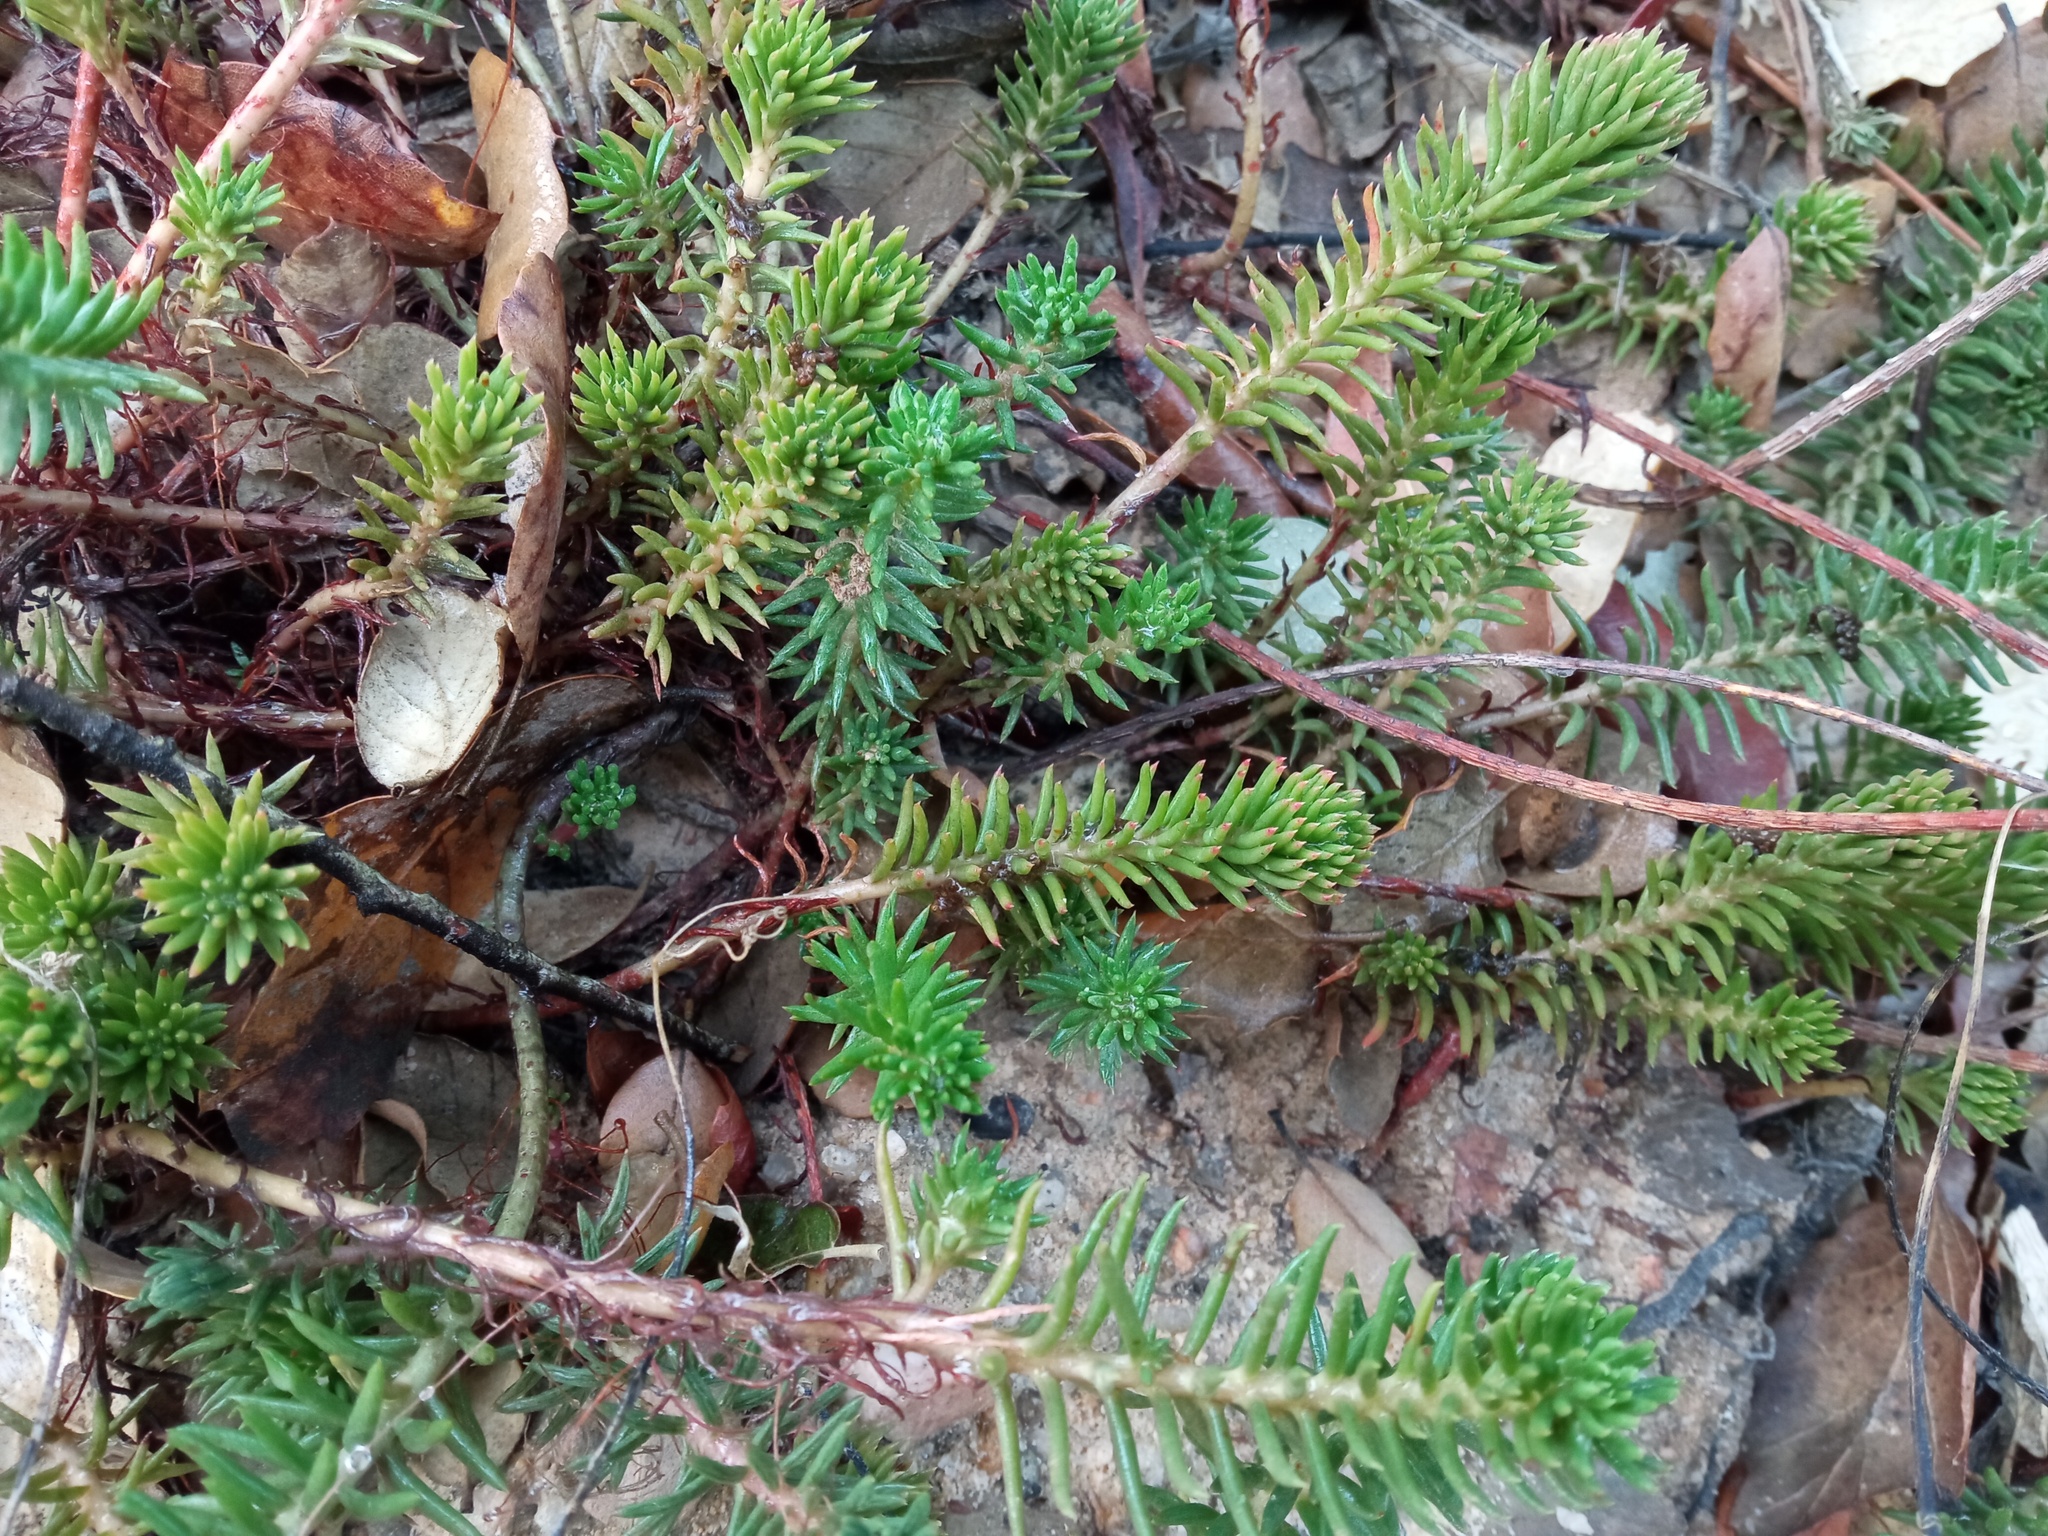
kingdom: Plantae
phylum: Tracheophyta
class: Magnoliopsida
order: Saxifragales
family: Crassulaceae
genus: Petrosedum
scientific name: Petrosedum rupestre
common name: Jenny's stonecrop
